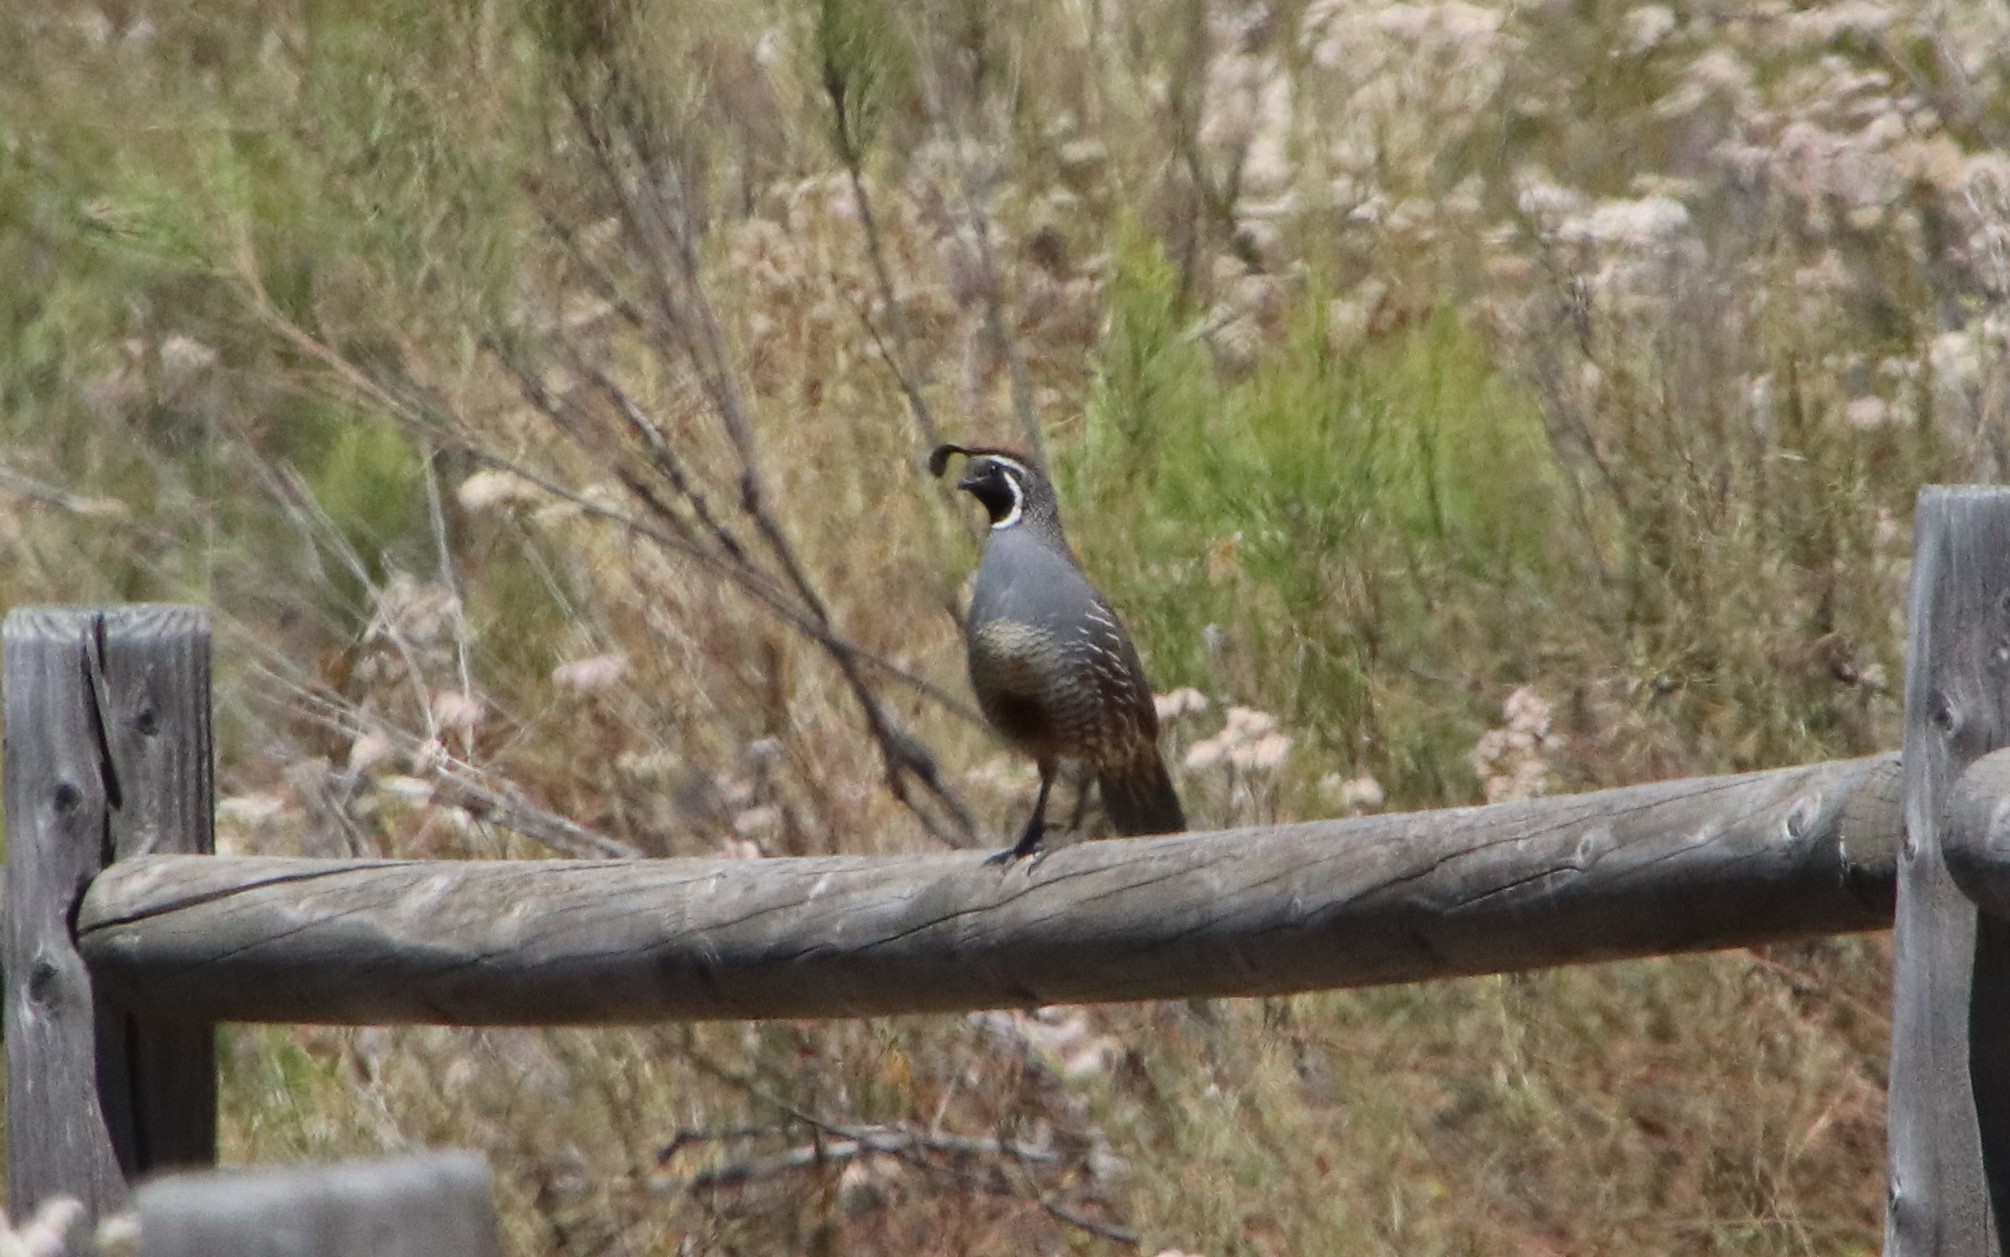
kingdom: Animalia
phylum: Chordata
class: Aves
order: Galliformes
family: Odontophoridae
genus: Callipepla
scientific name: Callipepla californica
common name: California quail
